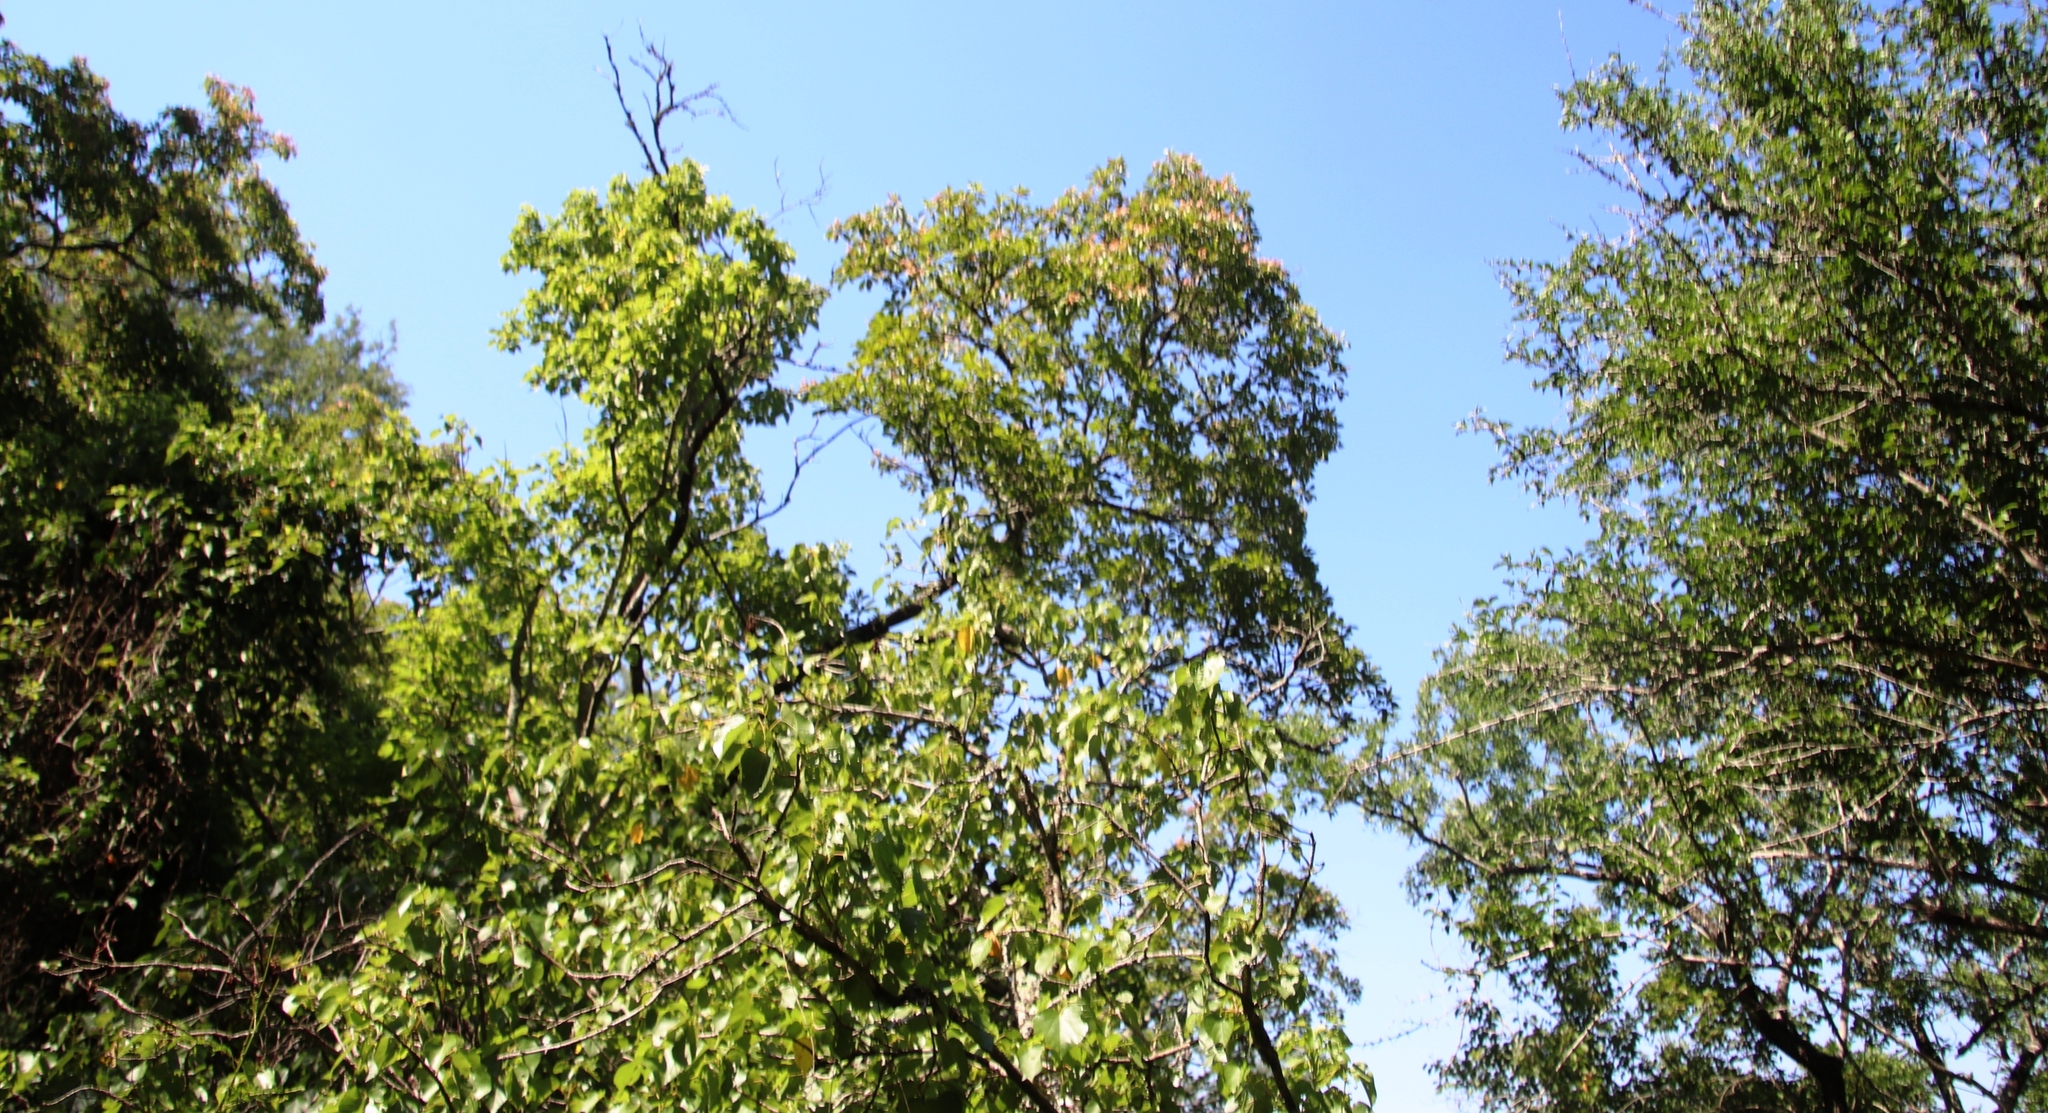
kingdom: Plantae
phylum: Tracheophyta
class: Magnoliopsida
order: Myrtales
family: Combretaceae
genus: Terminalia
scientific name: Terminalia phanerophlebia
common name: Lebombo cluster-leaf
